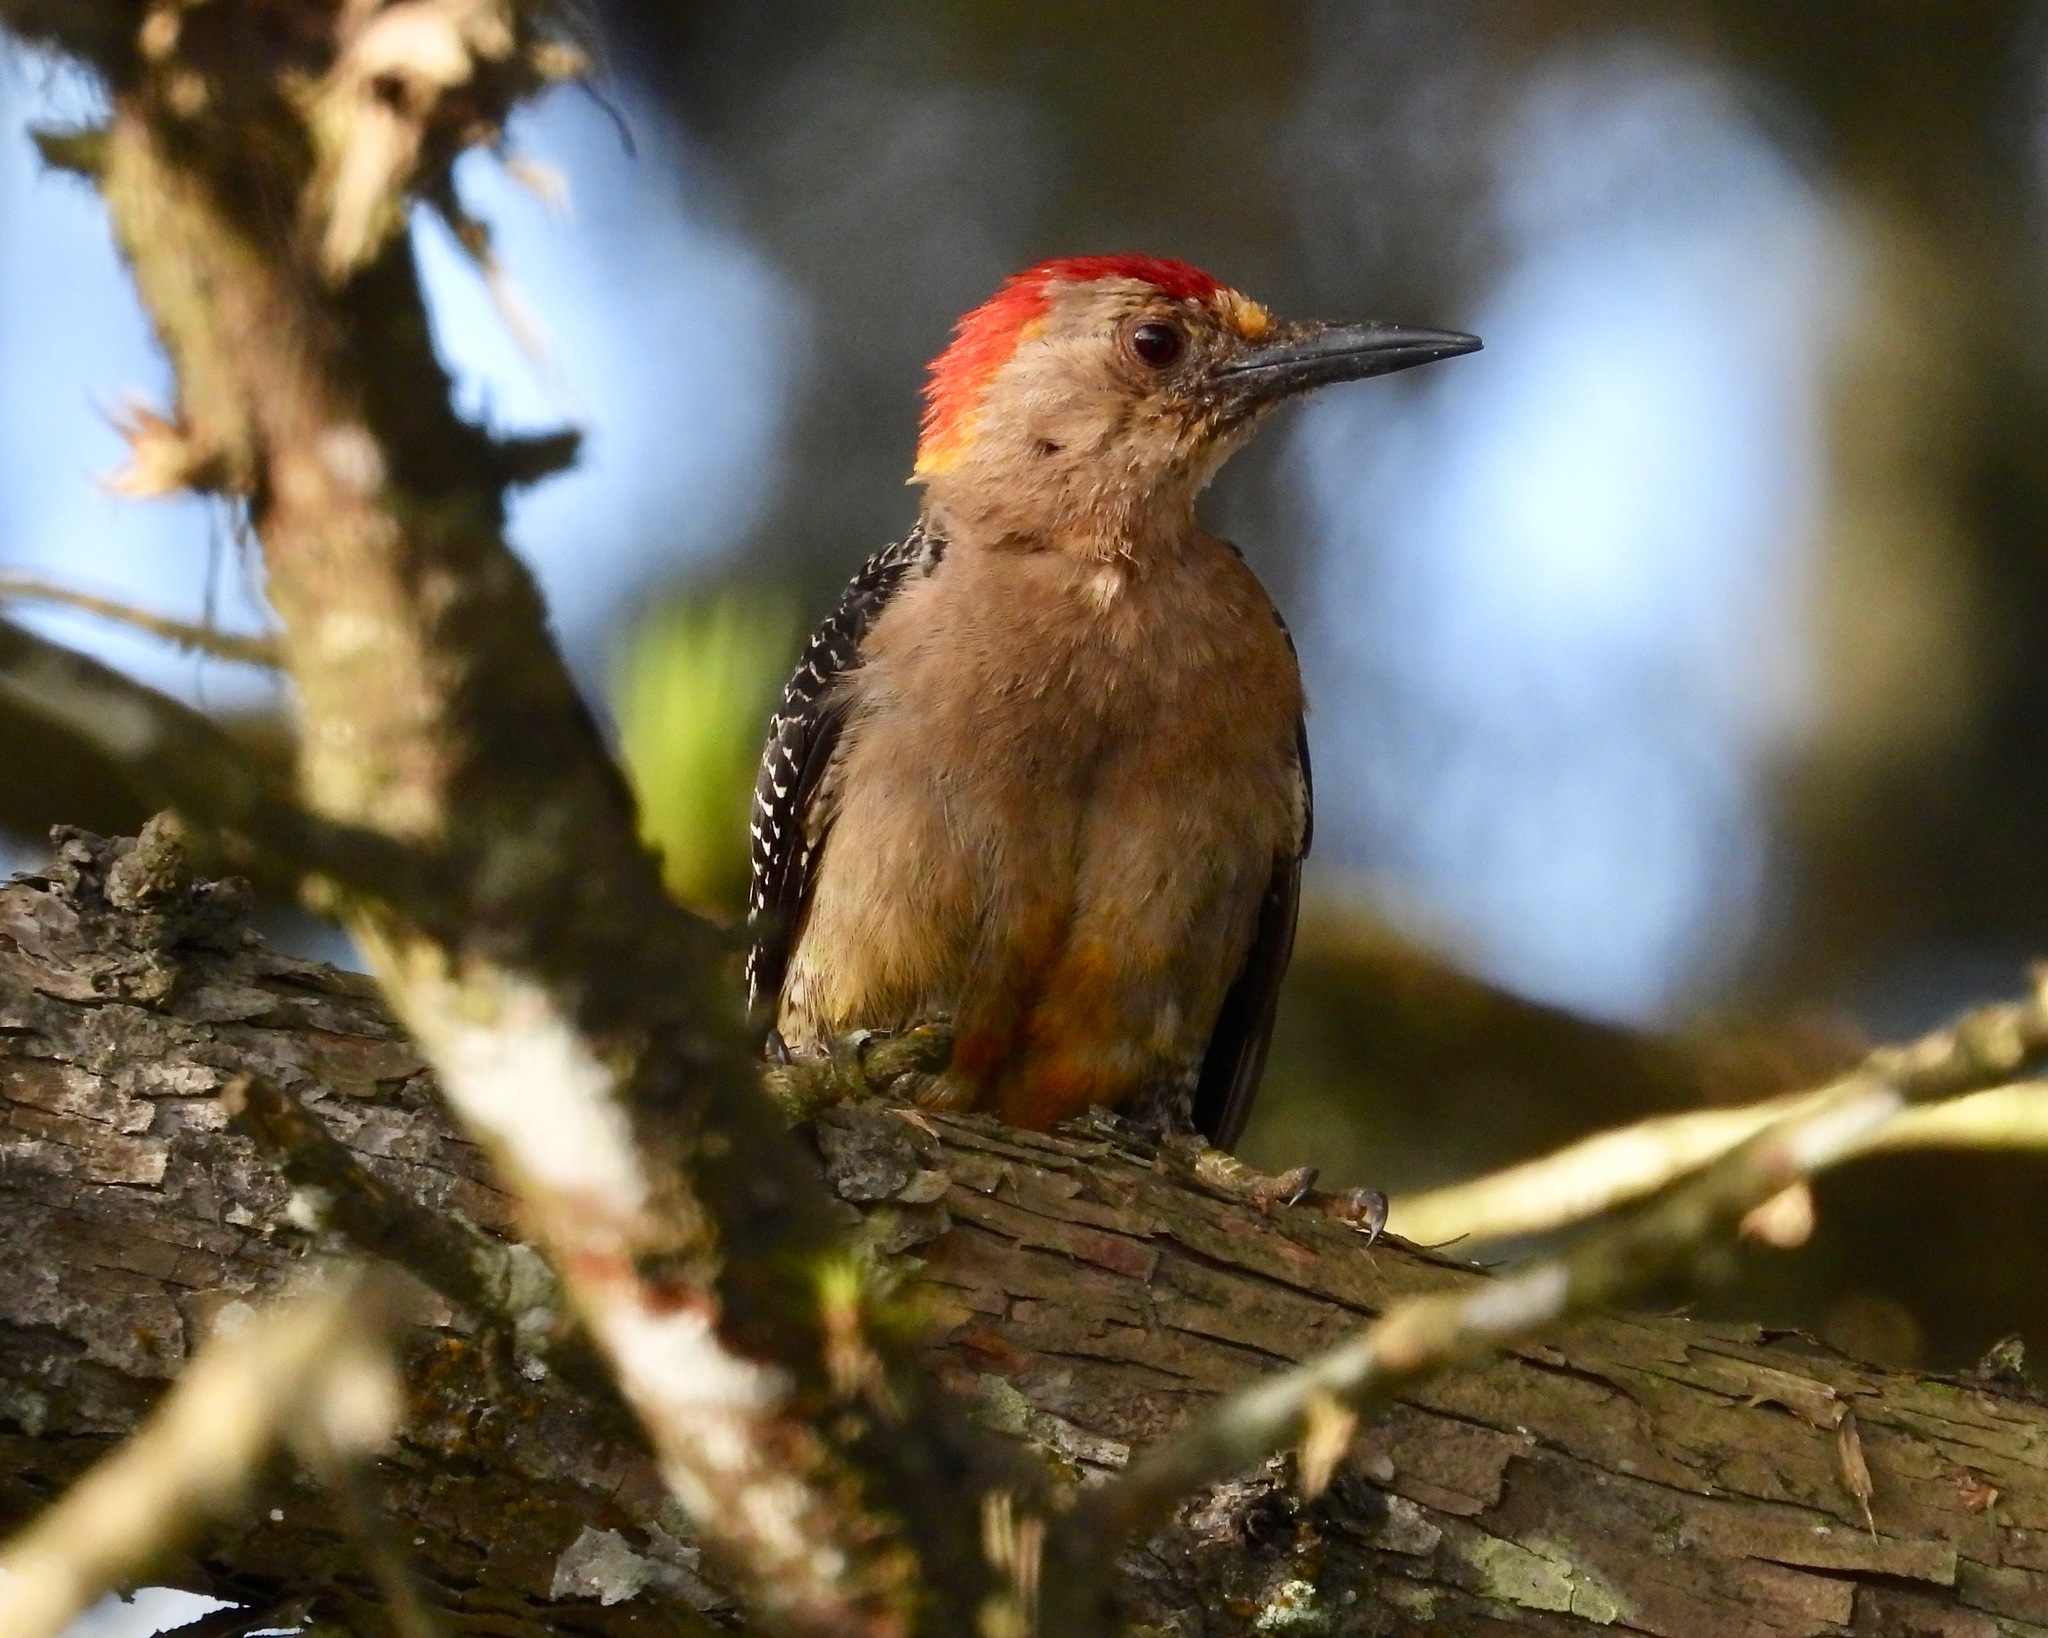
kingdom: Animalia
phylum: Chordata
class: Aves
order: Piciformes
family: Picidae
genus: Melanerpes
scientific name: Melanerpes aurifrons
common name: Golden-fronted woodpecker
